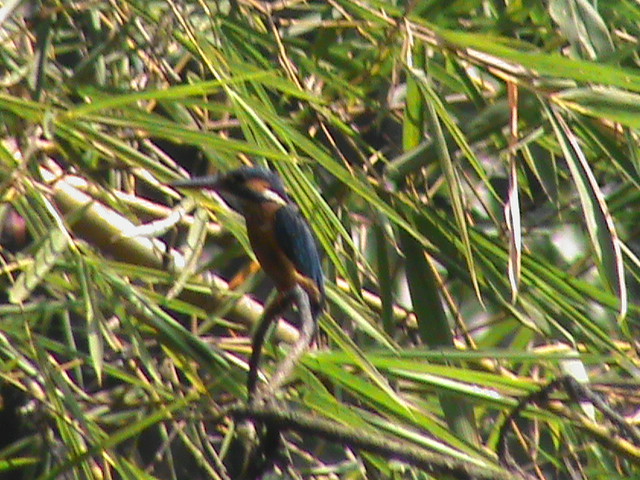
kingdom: Animalia
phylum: Chordata
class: Aves
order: Coraciiformes
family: Alcedinidae
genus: Alcedo
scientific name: Alcedo atthis
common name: Common kingfisher
